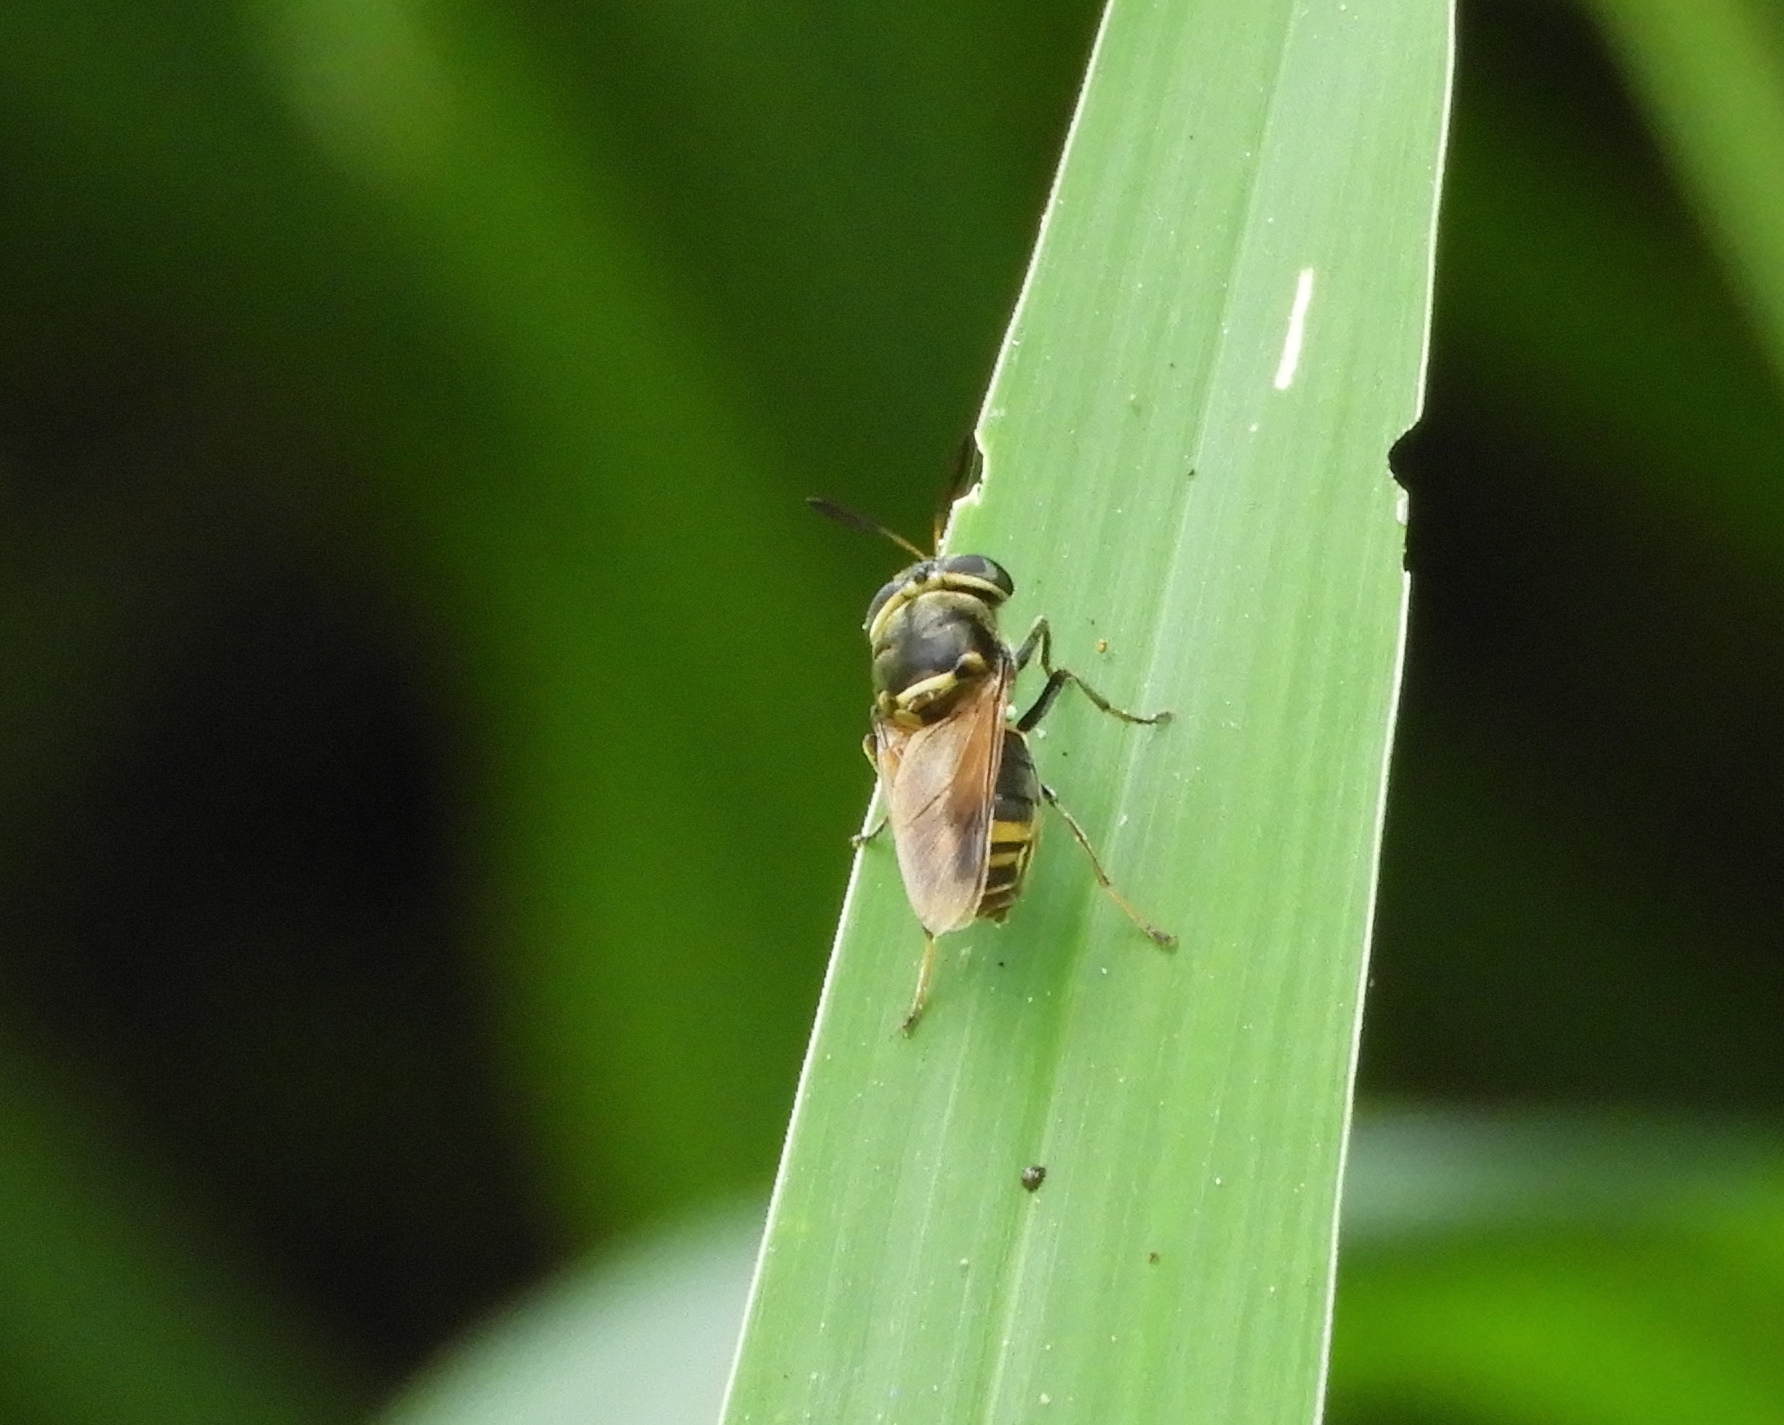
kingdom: Animalia
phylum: Arthropoda
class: Insecta
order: Diptera
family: Stratiomyidae
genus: Hoplitimyia
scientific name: Hoplitimyia mutabilis
